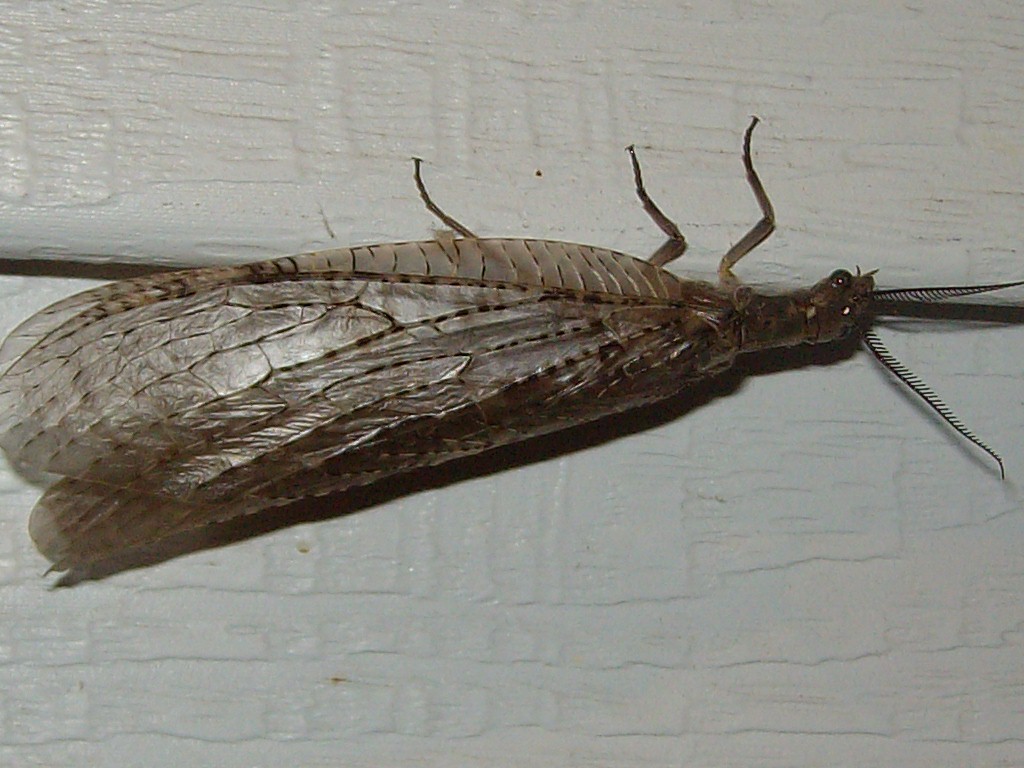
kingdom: Animalia
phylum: Arthropoda
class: Insecta
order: Megaloptera
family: Corydalidae
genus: Chauliodes
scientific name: Chauliodes pectinicornis
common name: Summer fishfly
